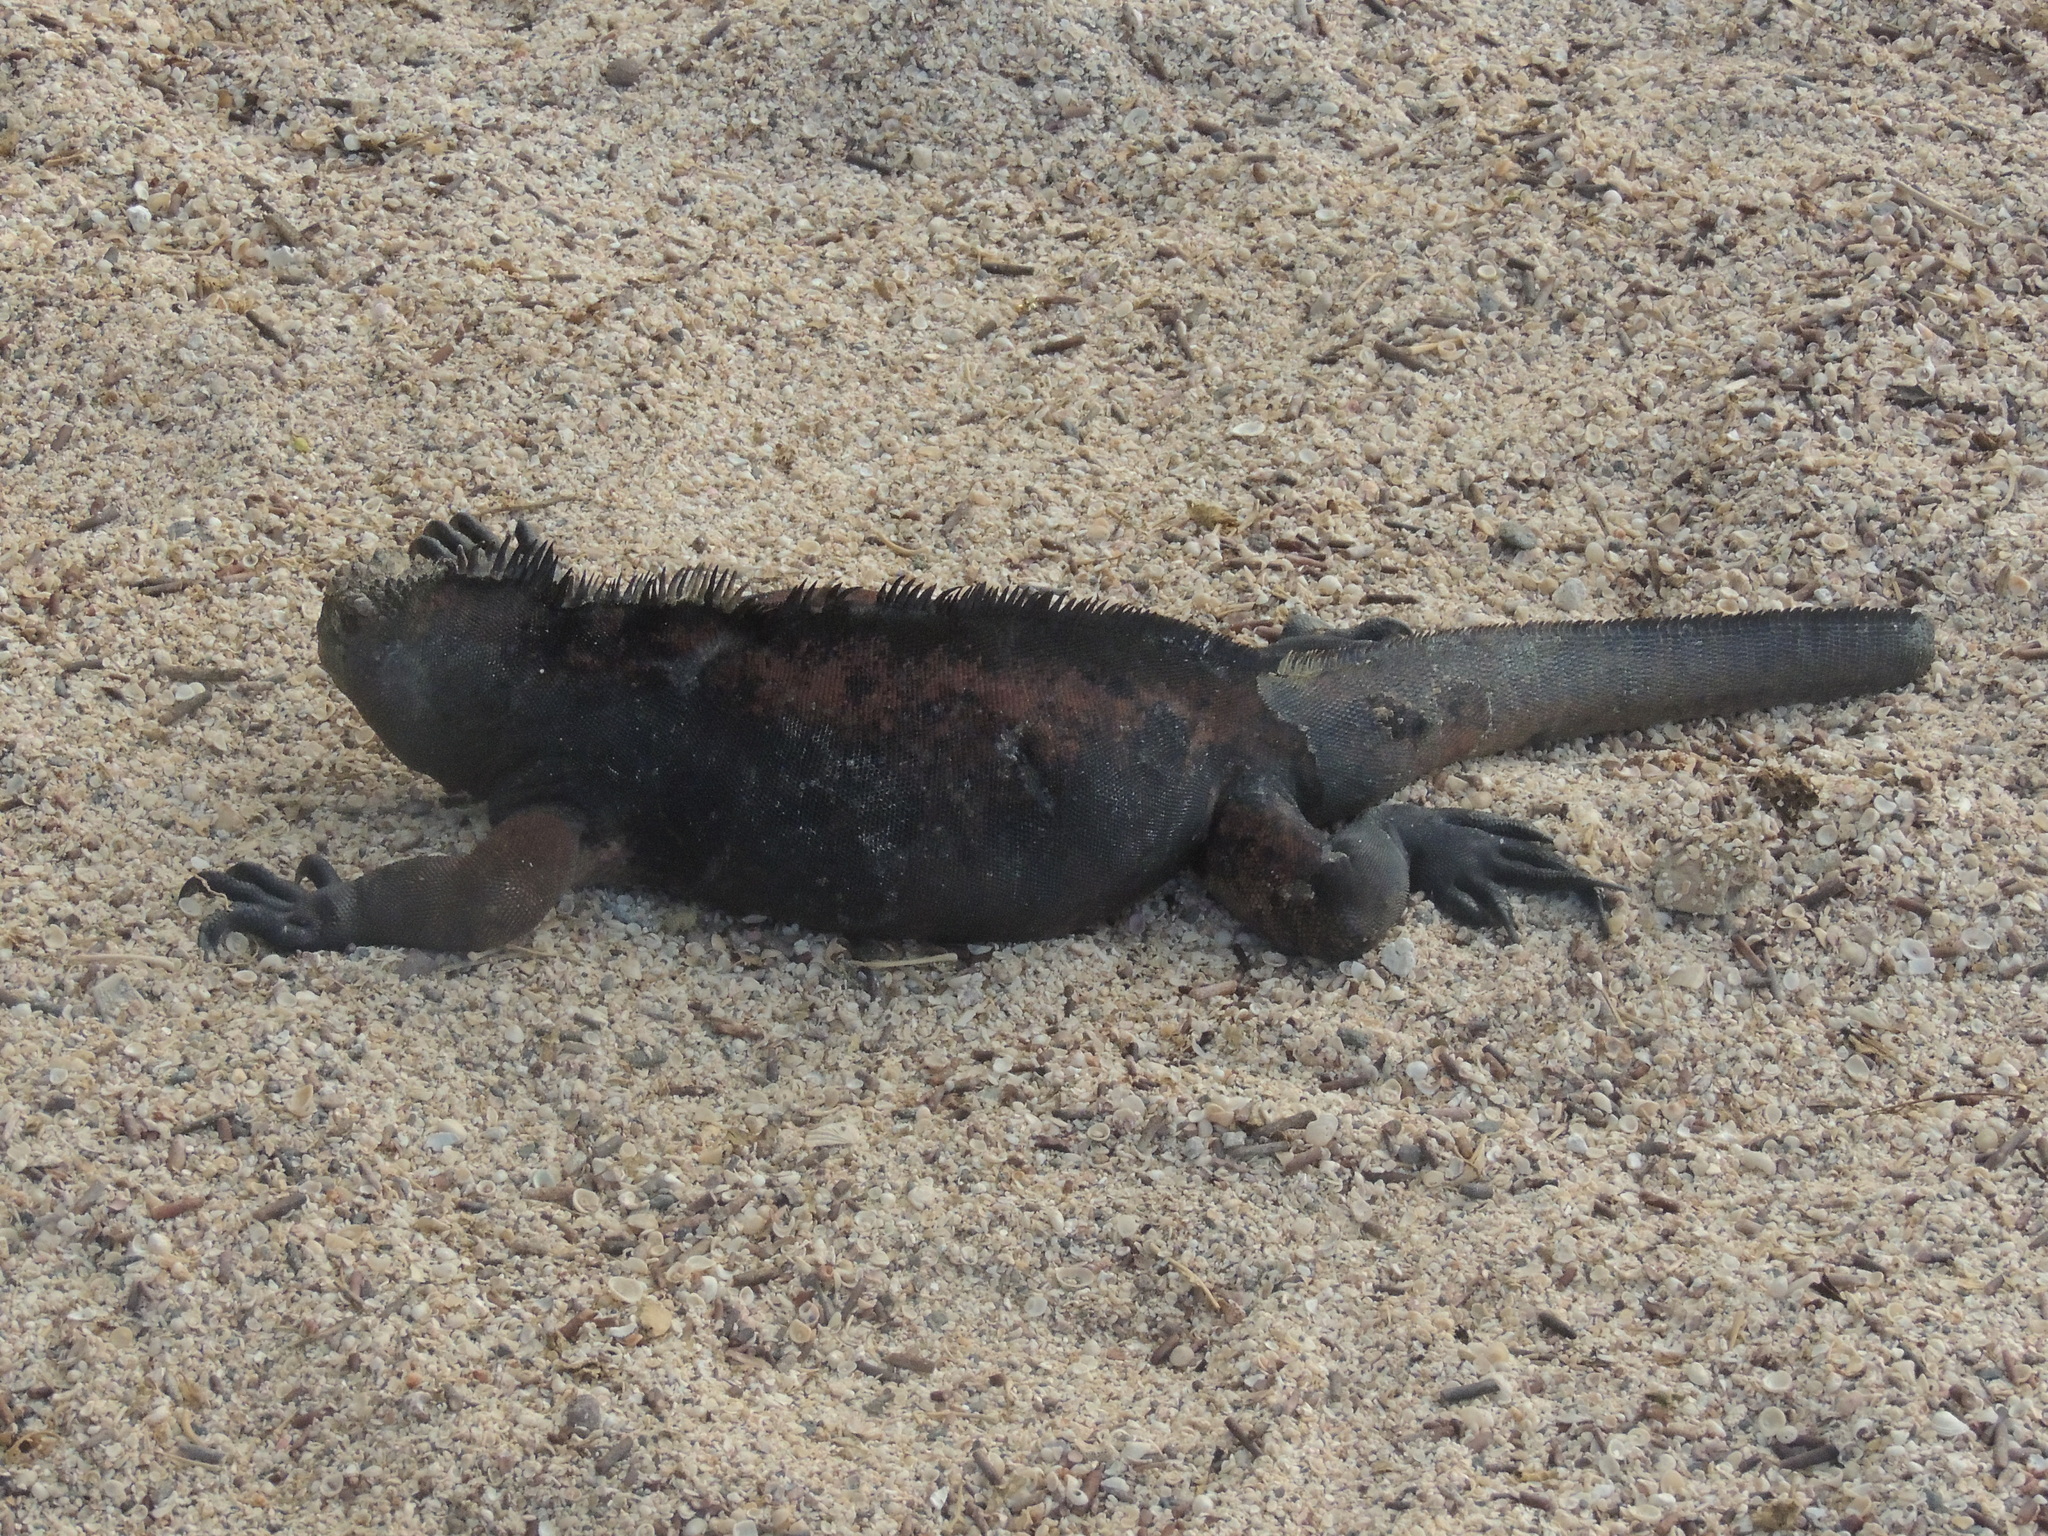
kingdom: Animalia
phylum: Chordata
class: Squamata
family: Iguanidae
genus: Amblyrhynchus
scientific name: Amblyrhynchus cristatus
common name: Marine iguana
